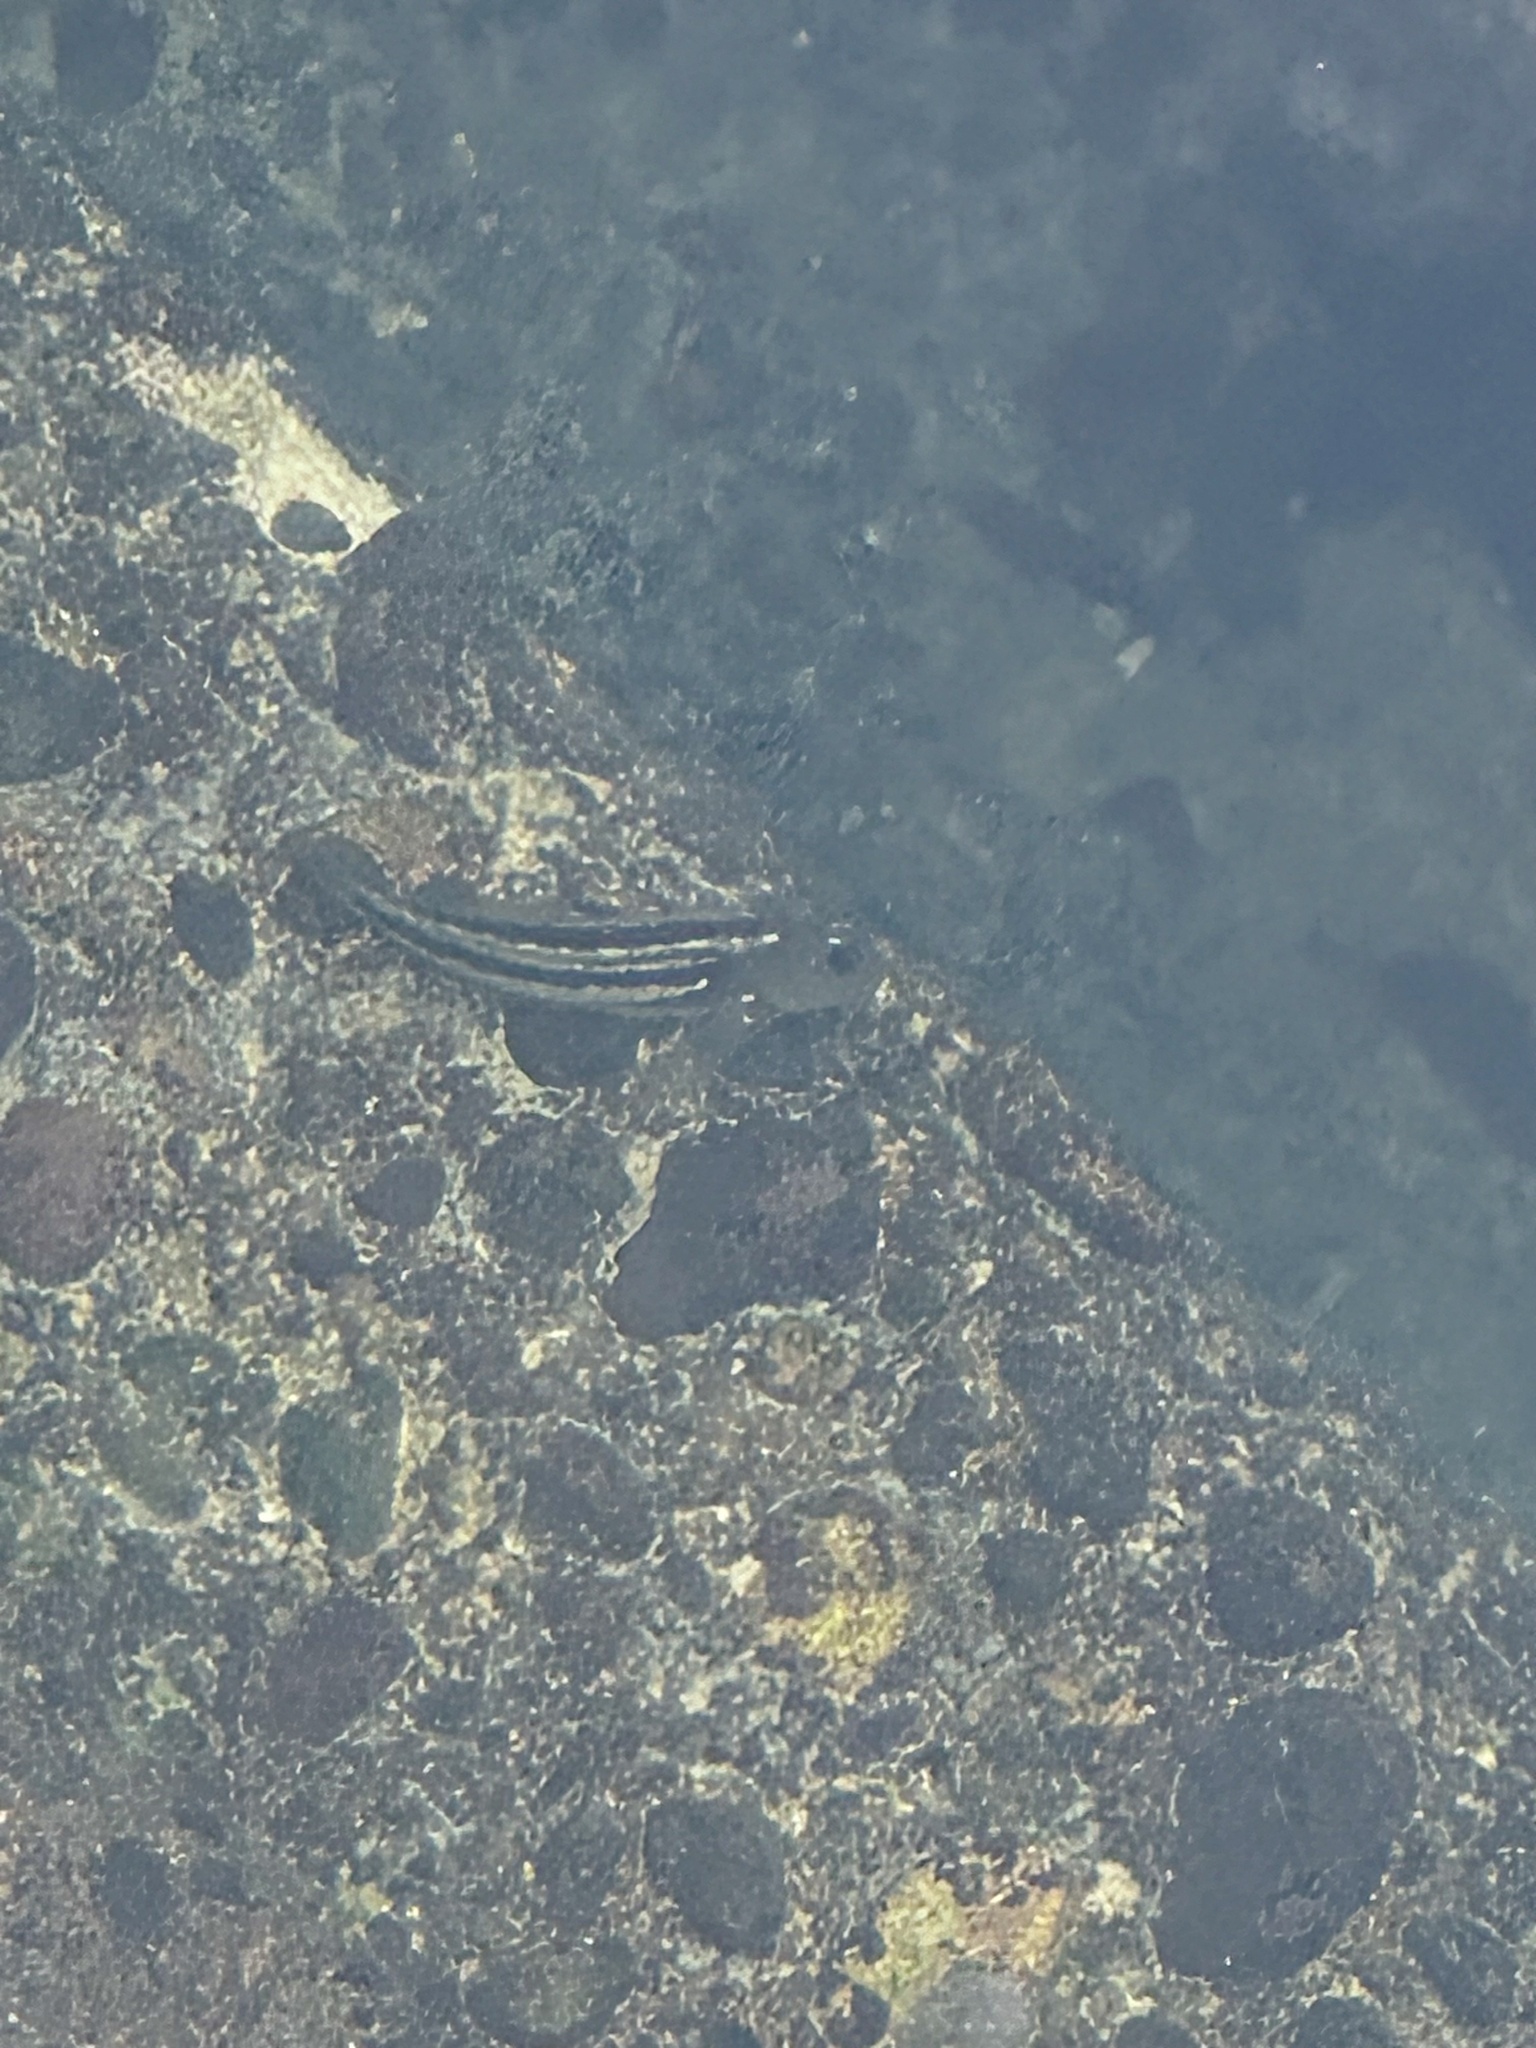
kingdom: Animalia
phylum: Chordata
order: Perciformes
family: Blenniidae
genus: Scartichthys
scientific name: Scartichthys viridis
